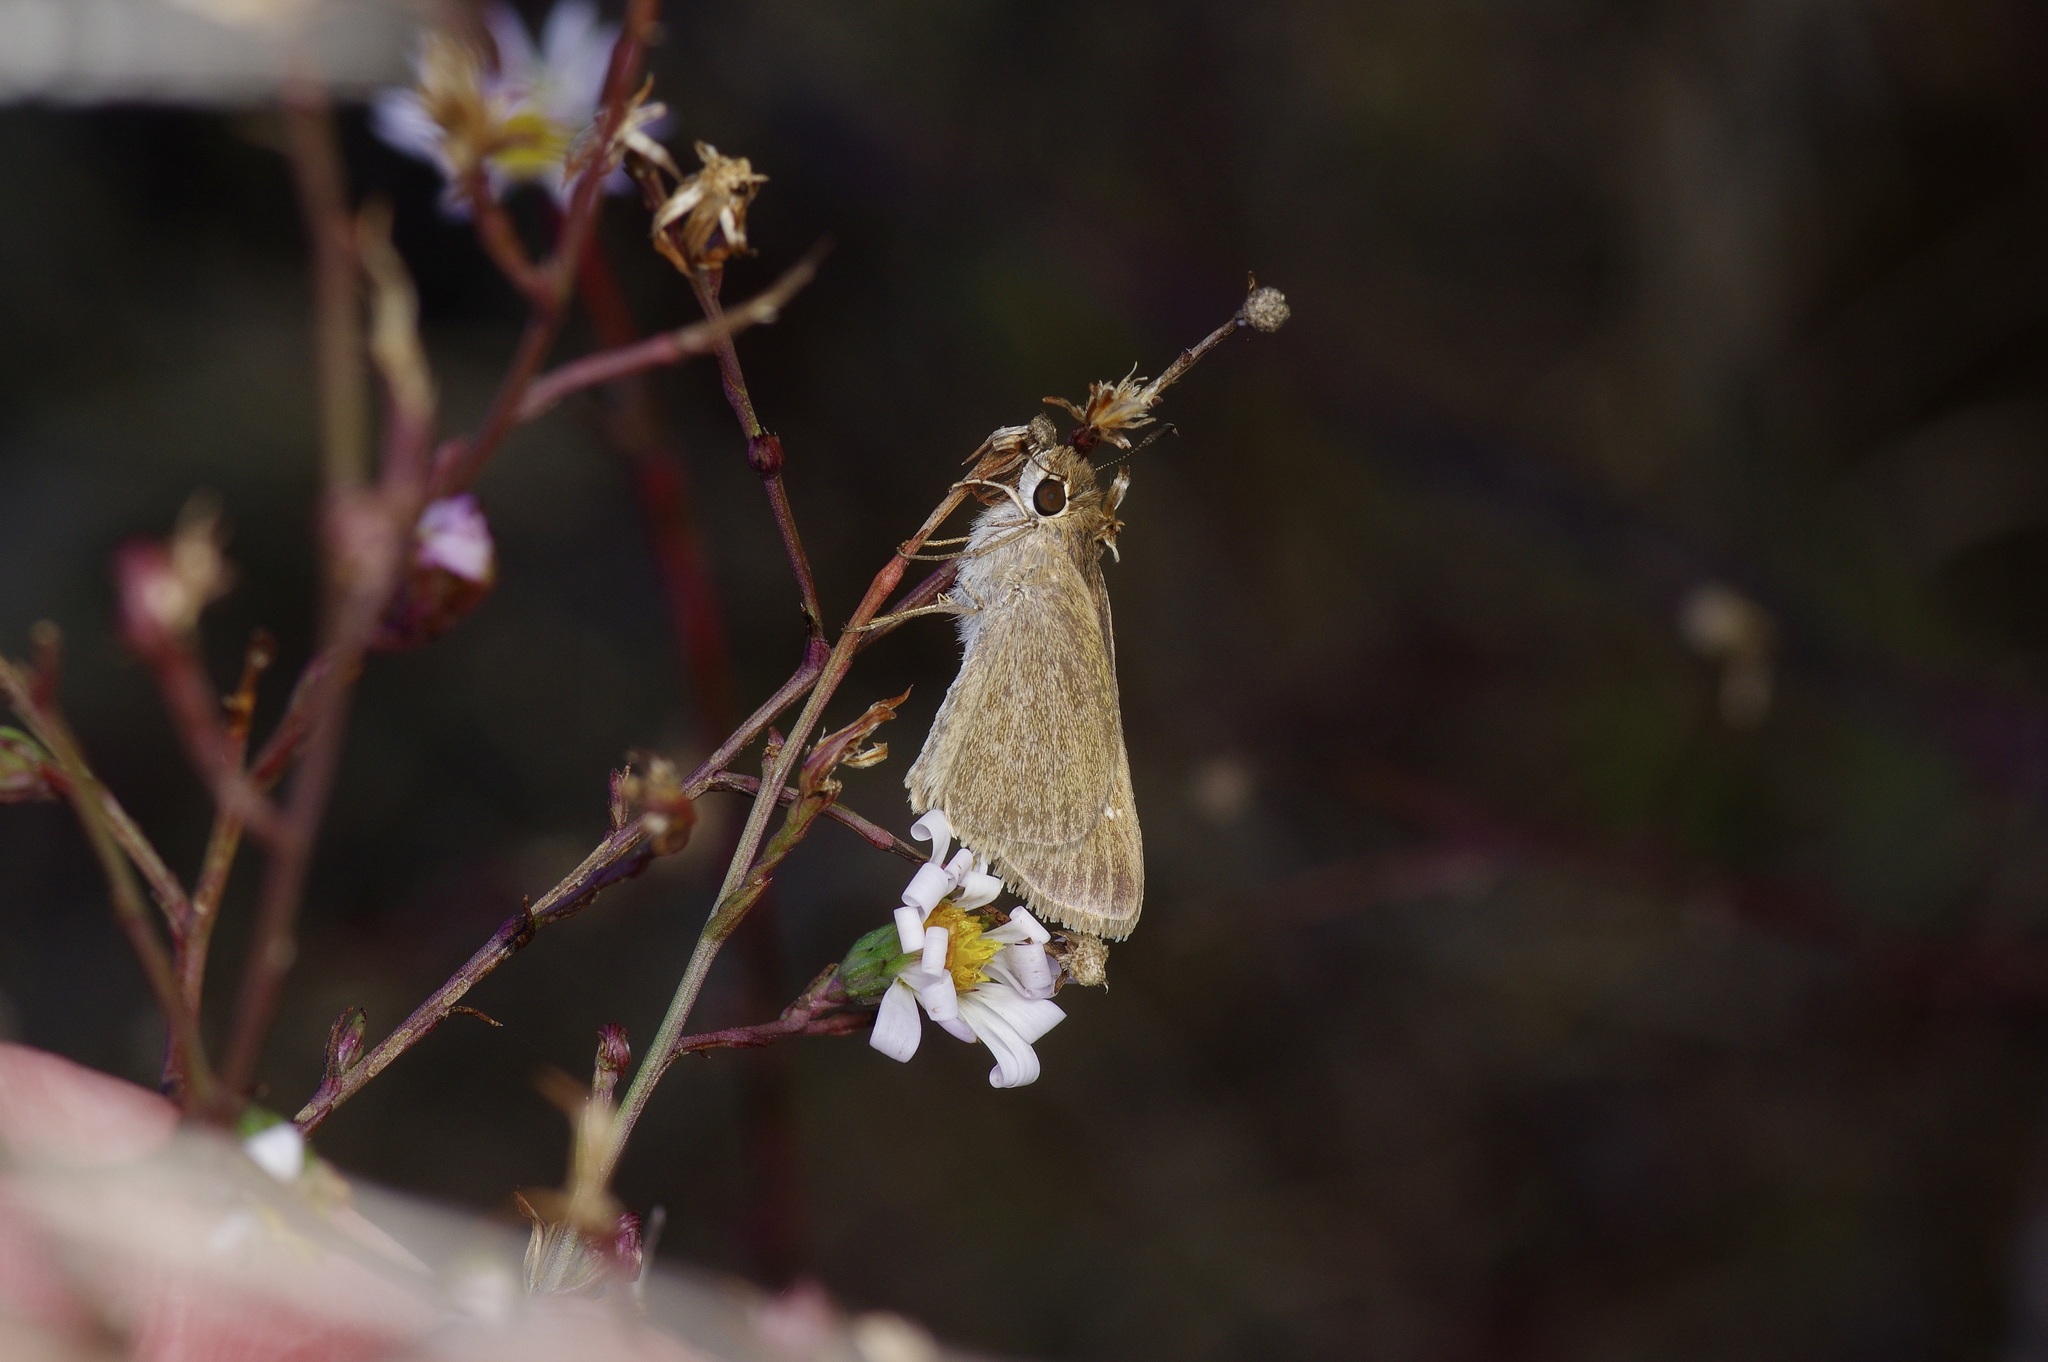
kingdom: Animalia
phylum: Arthropoda
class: Insecta
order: Lepidoptera
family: Hesperiidae
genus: Lerodea
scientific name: Lerodea eufala
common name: Eufala skipper
